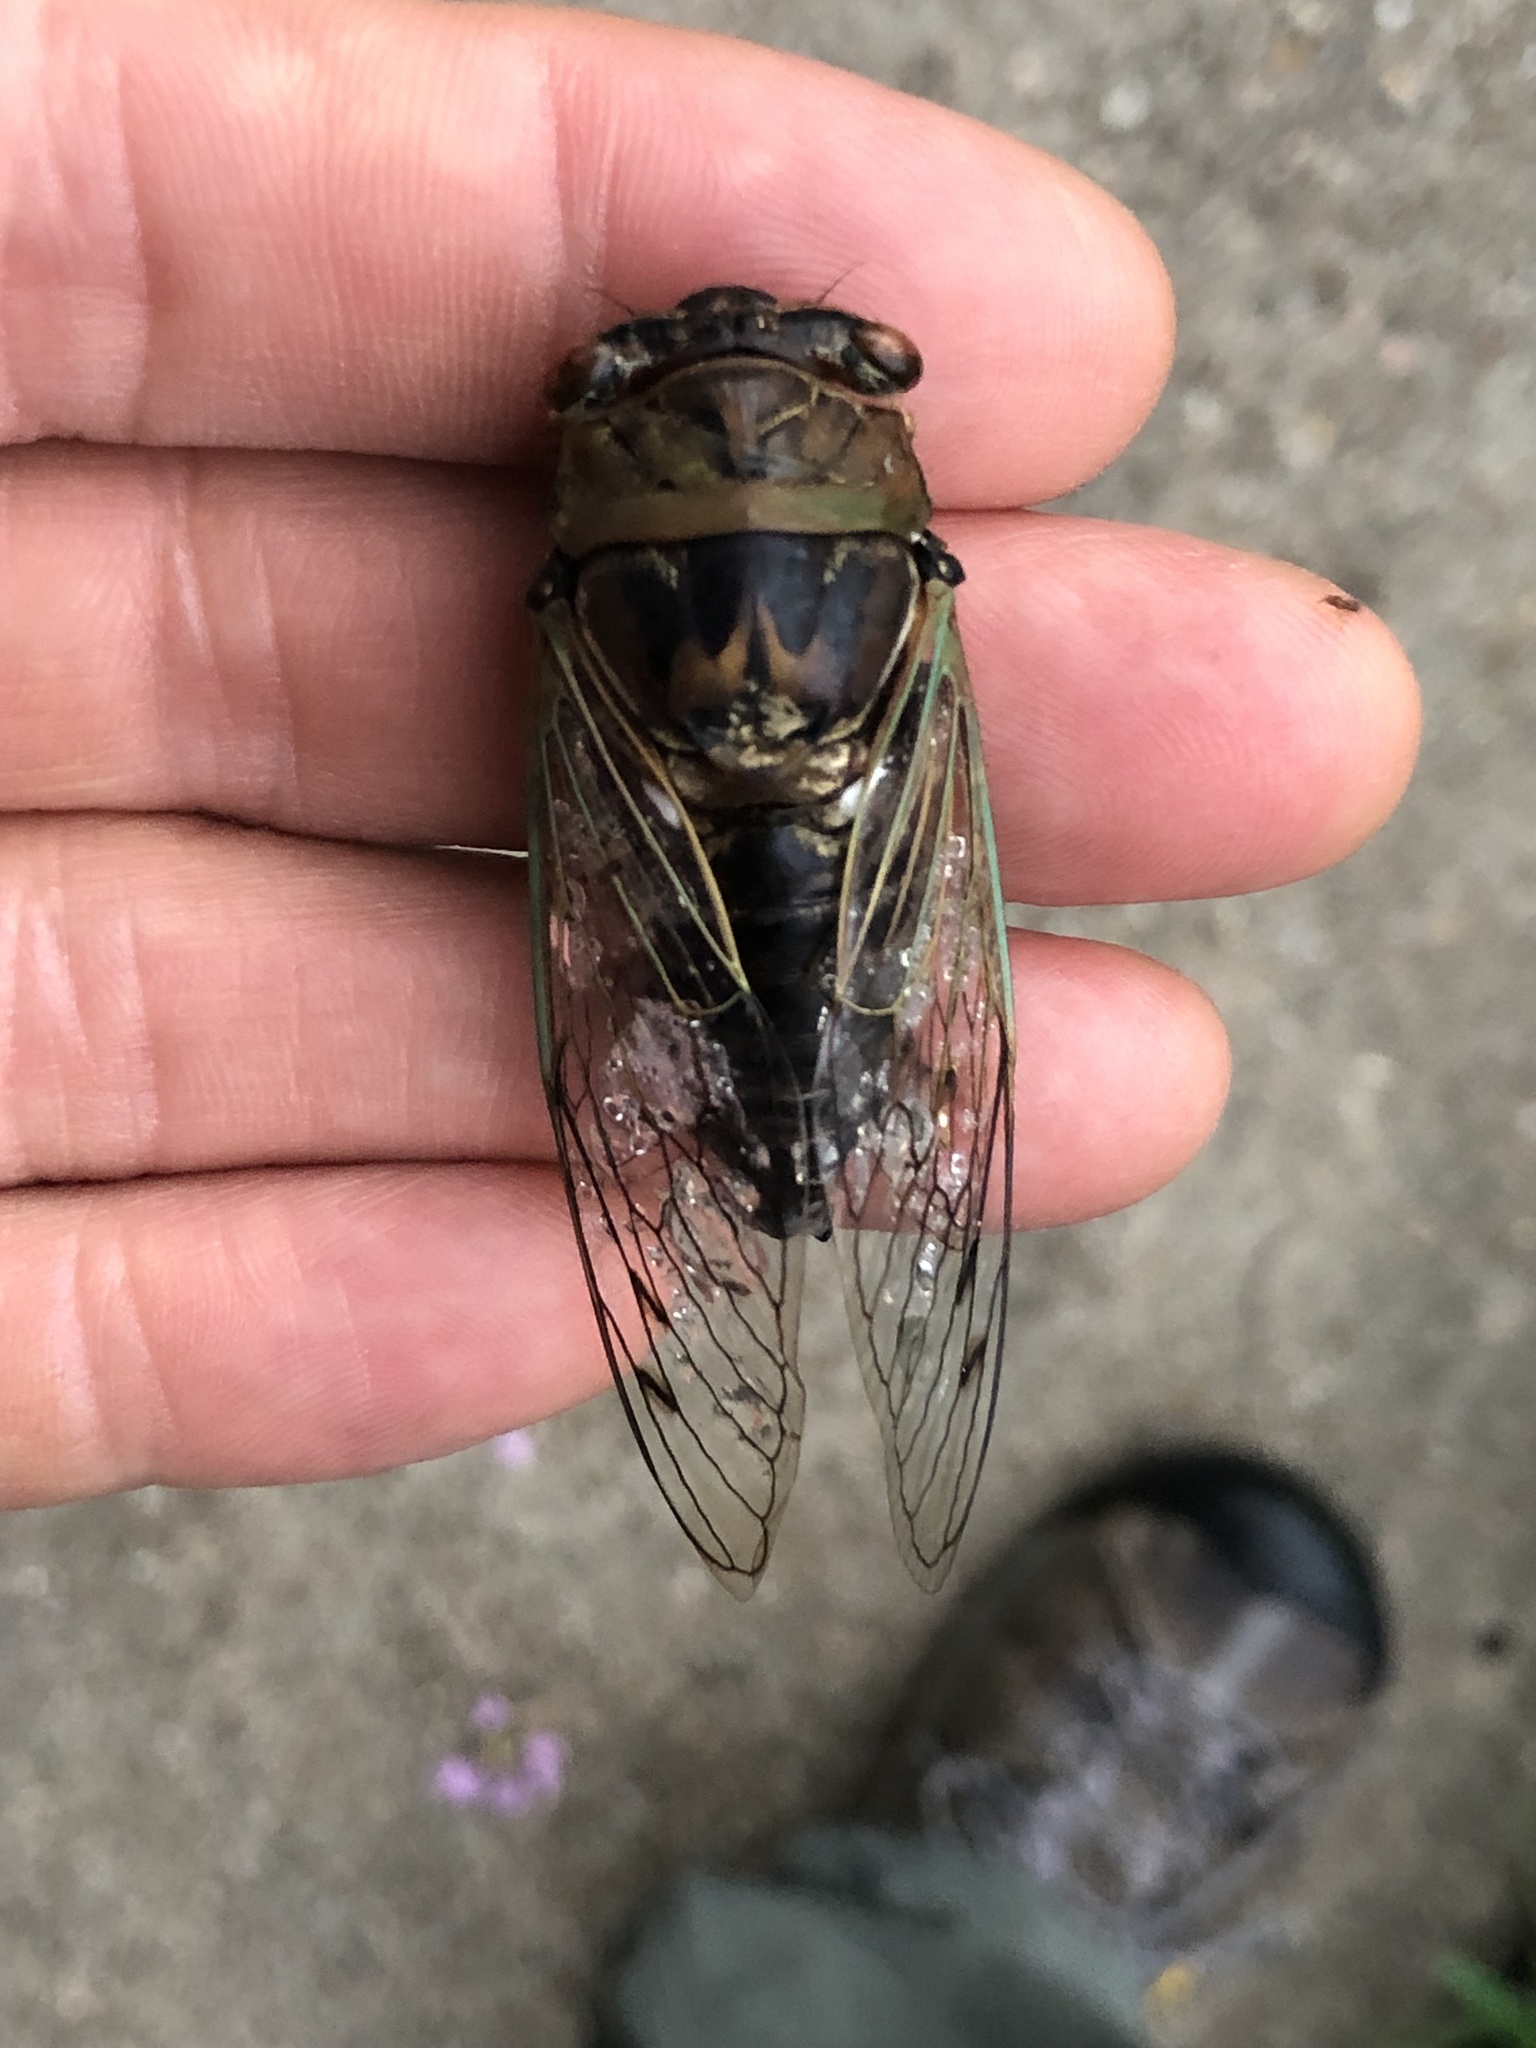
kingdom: Animalia
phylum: Arthropoda
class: Insecta
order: Hemiptera
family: Cicadidae
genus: Megatibicen
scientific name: Megatibicen resh
